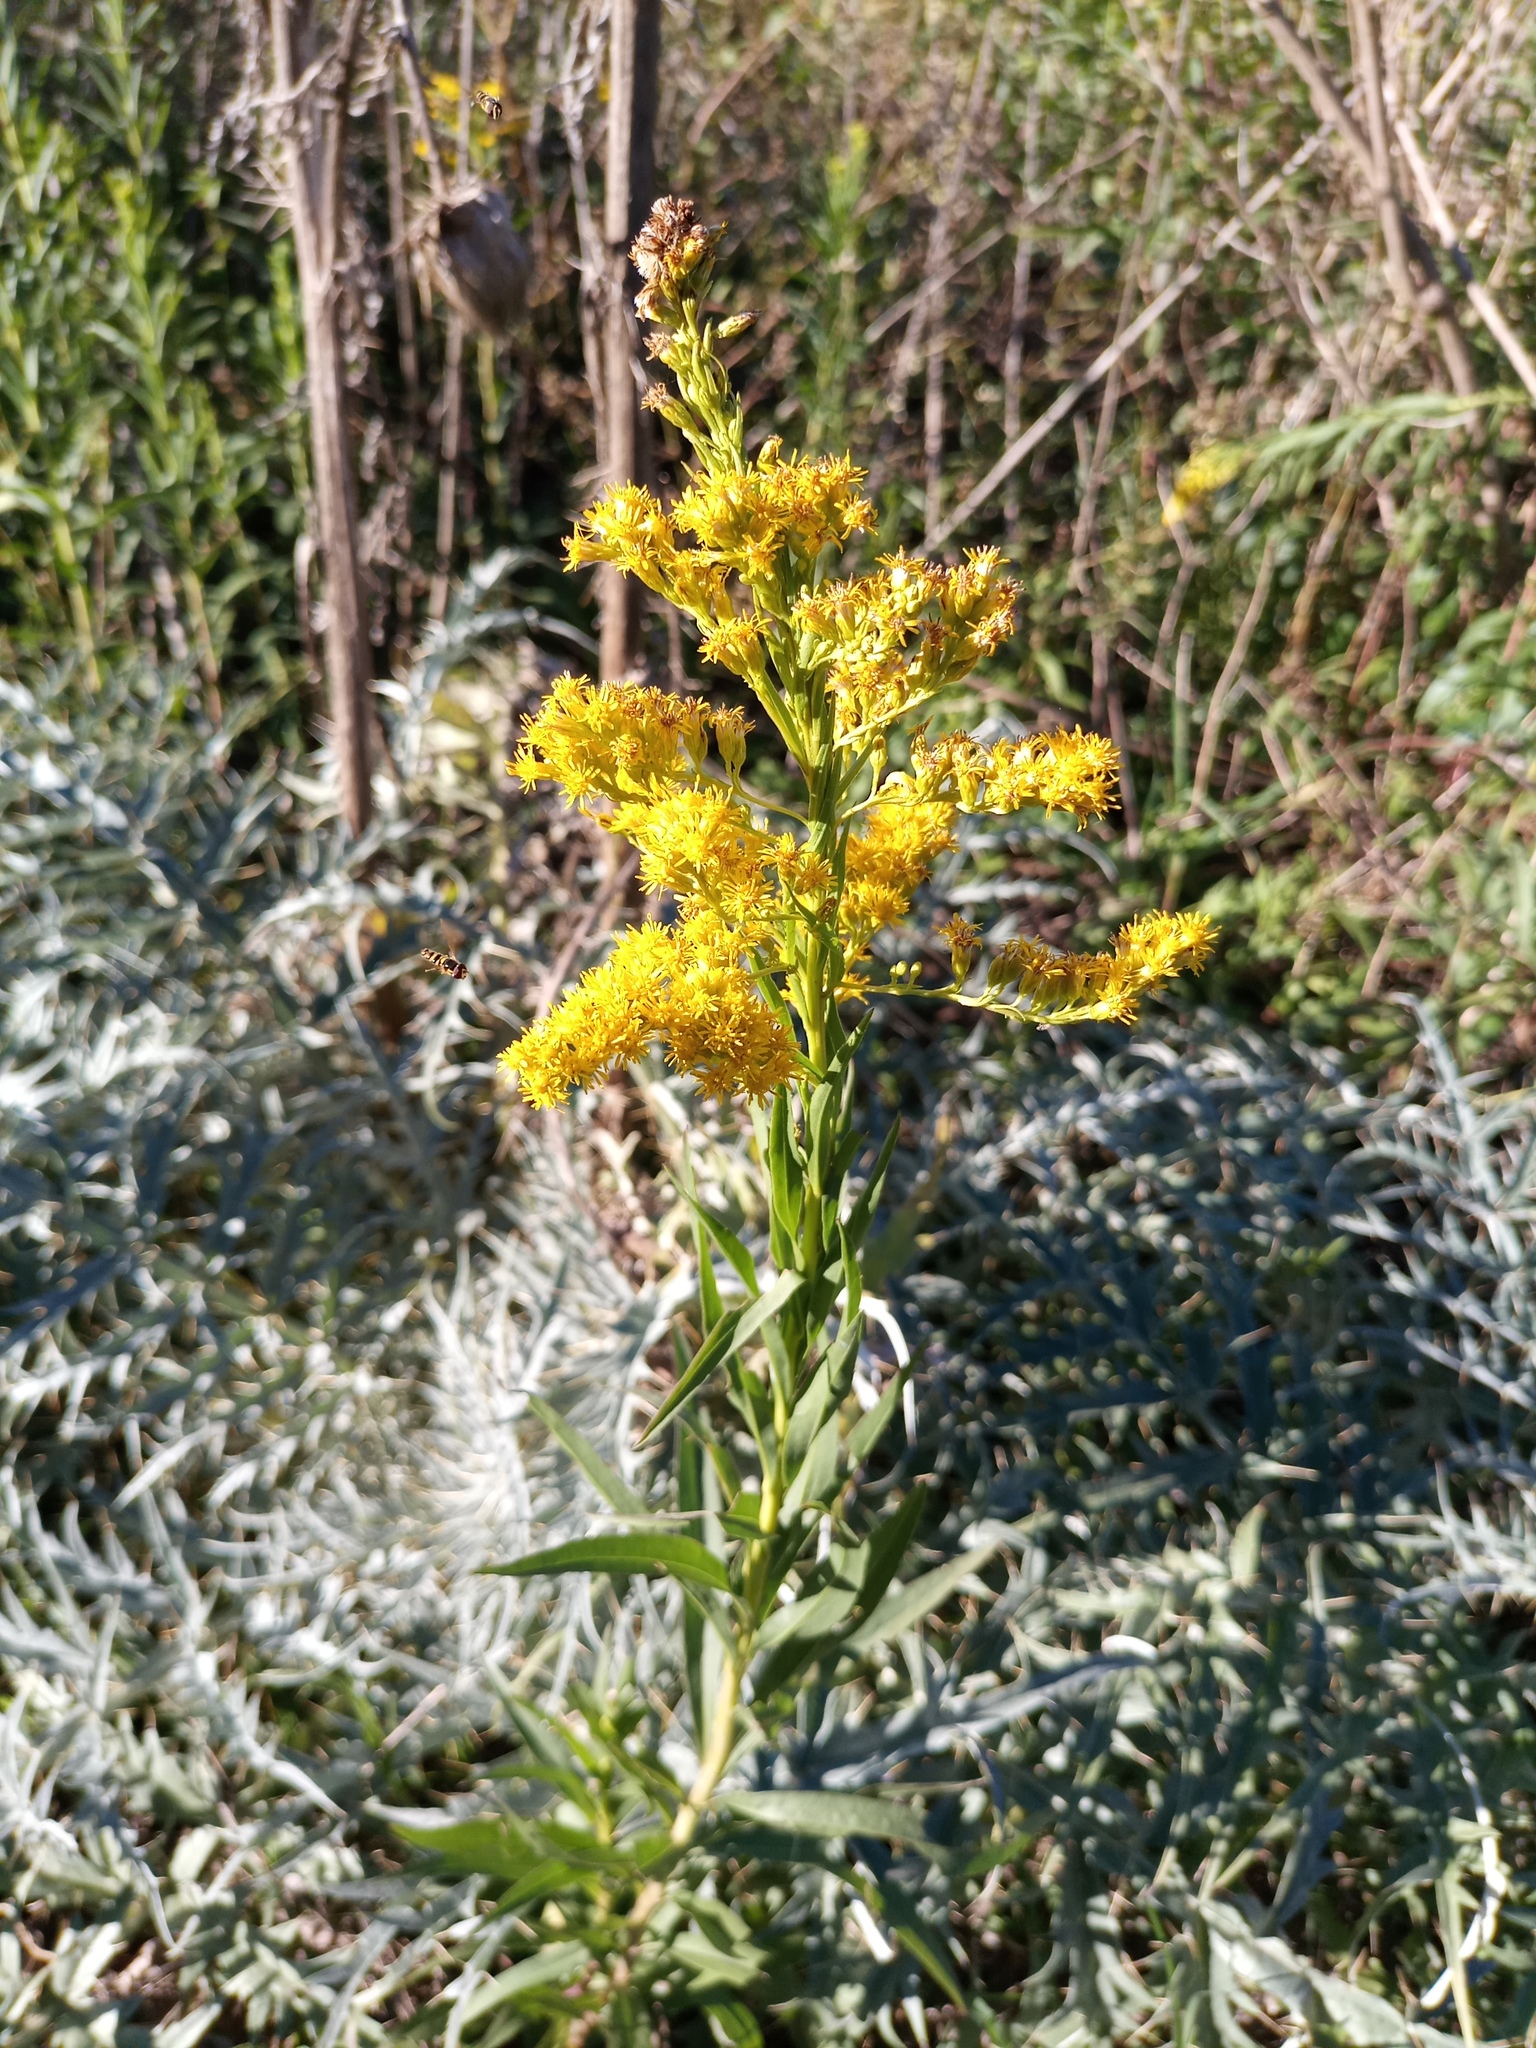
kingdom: Plantae
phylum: Tracheophyta
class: Magnoliopsida
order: Asterales
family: Asteraceae
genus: Solidago
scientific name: Solidago chilensis
